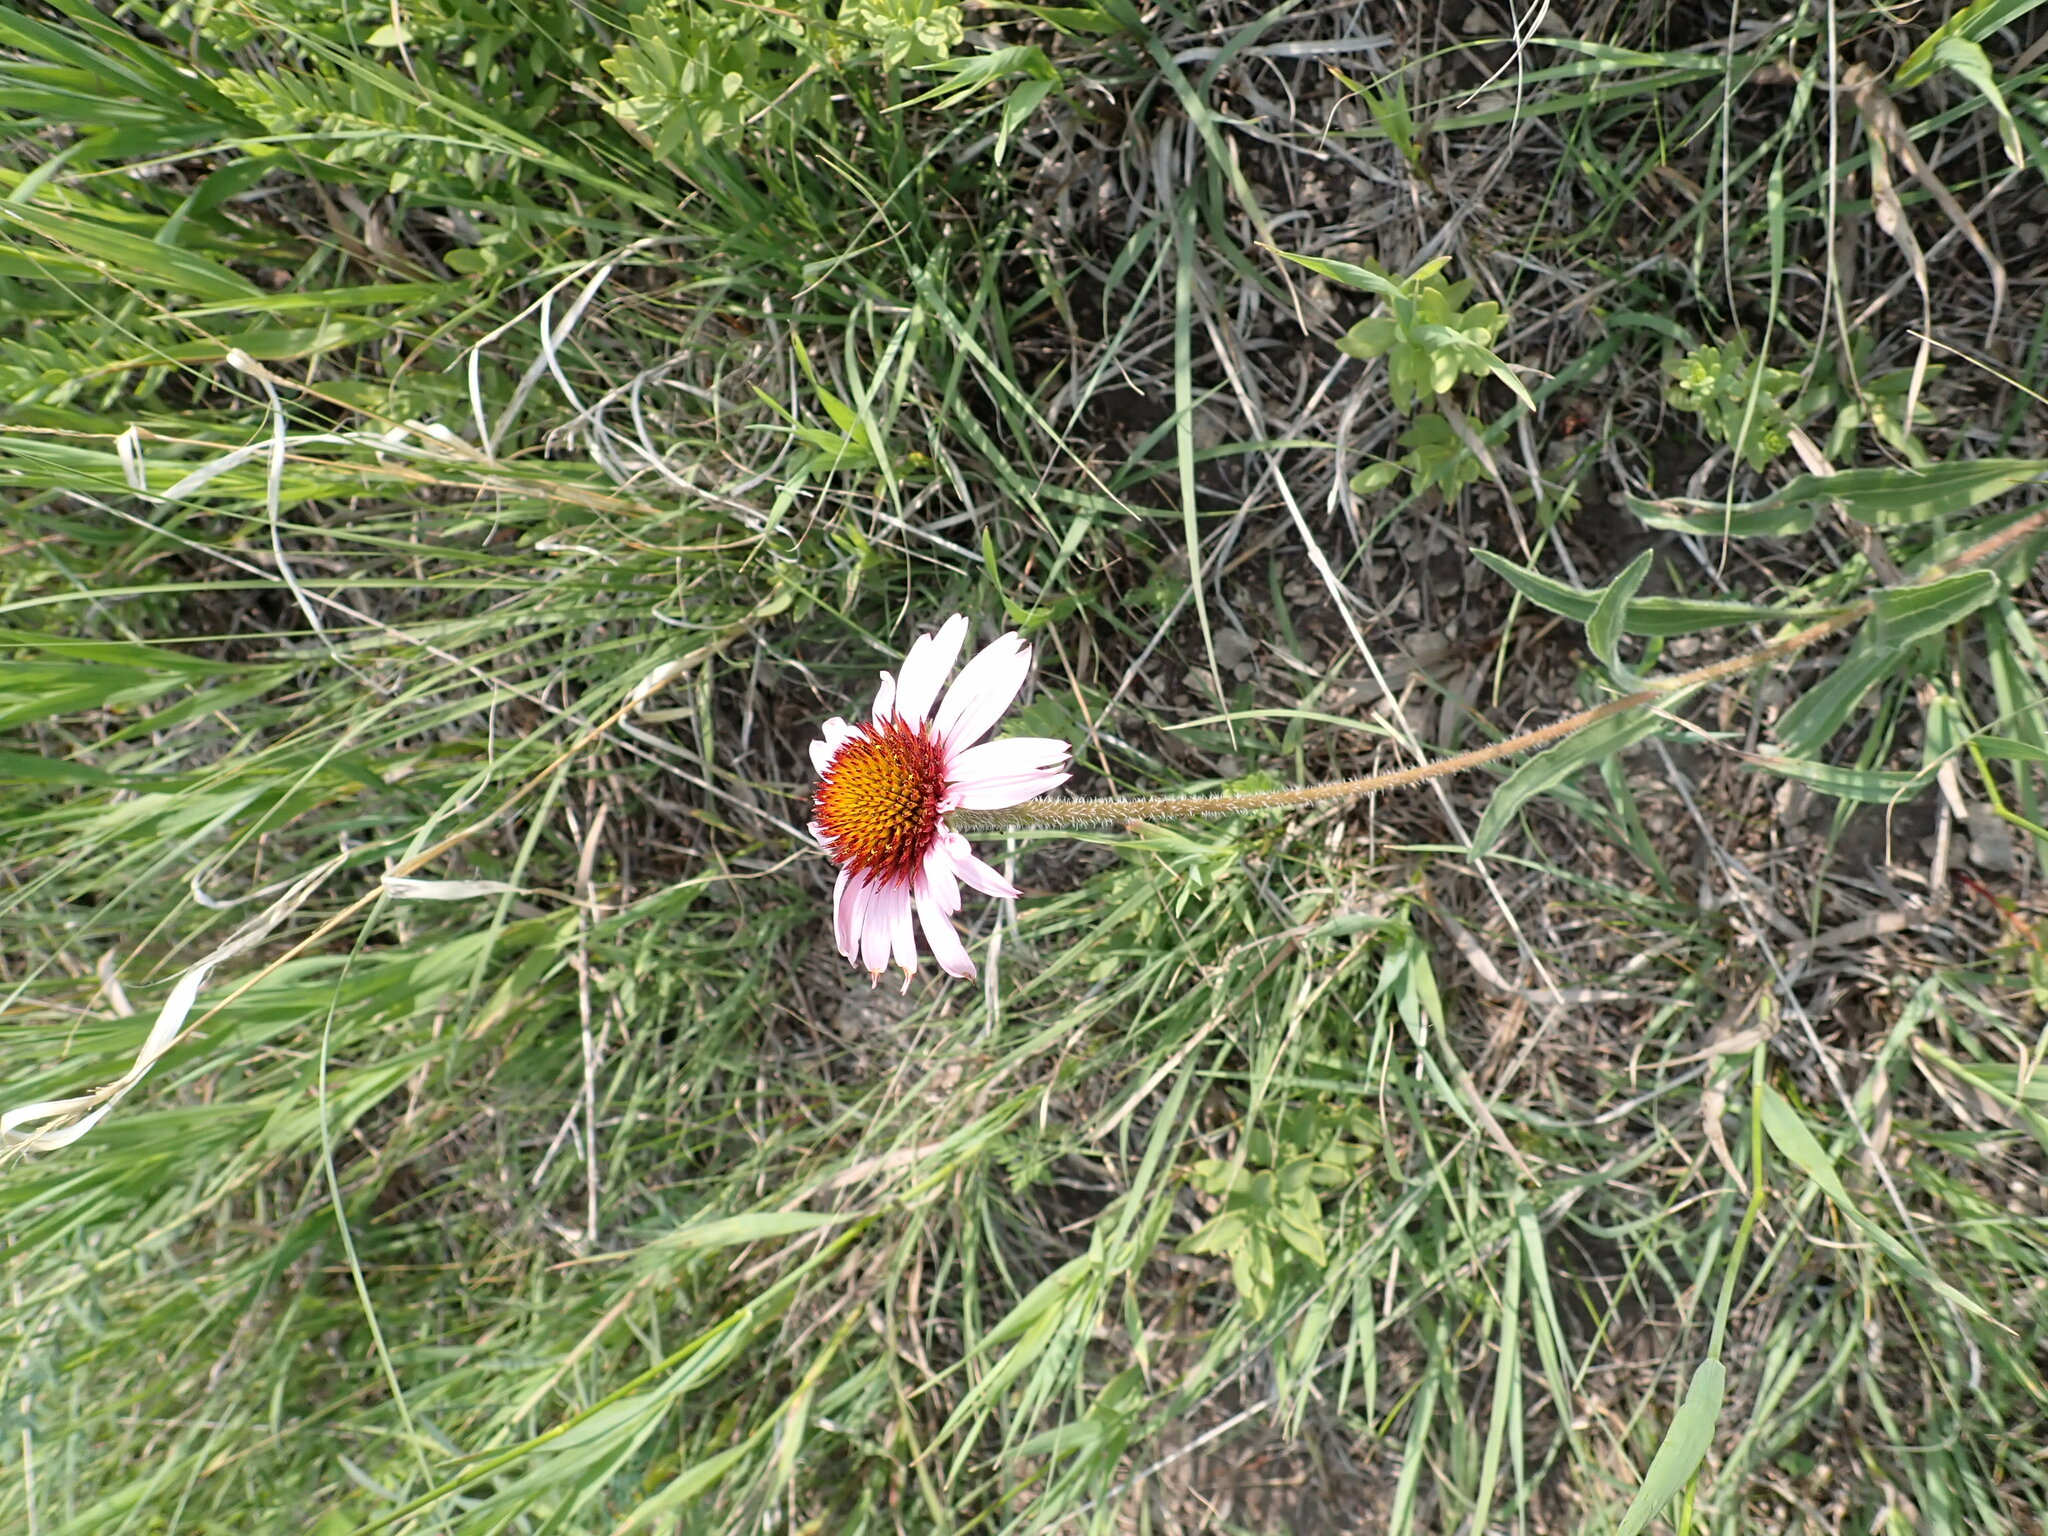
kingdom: Plantae
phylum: Tracheophyta
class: Magnoliopsida
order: Asterales
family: Asteraceae
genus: Echinacea
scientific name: Echinacea angustifolia
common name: Black-sampson echinacea
